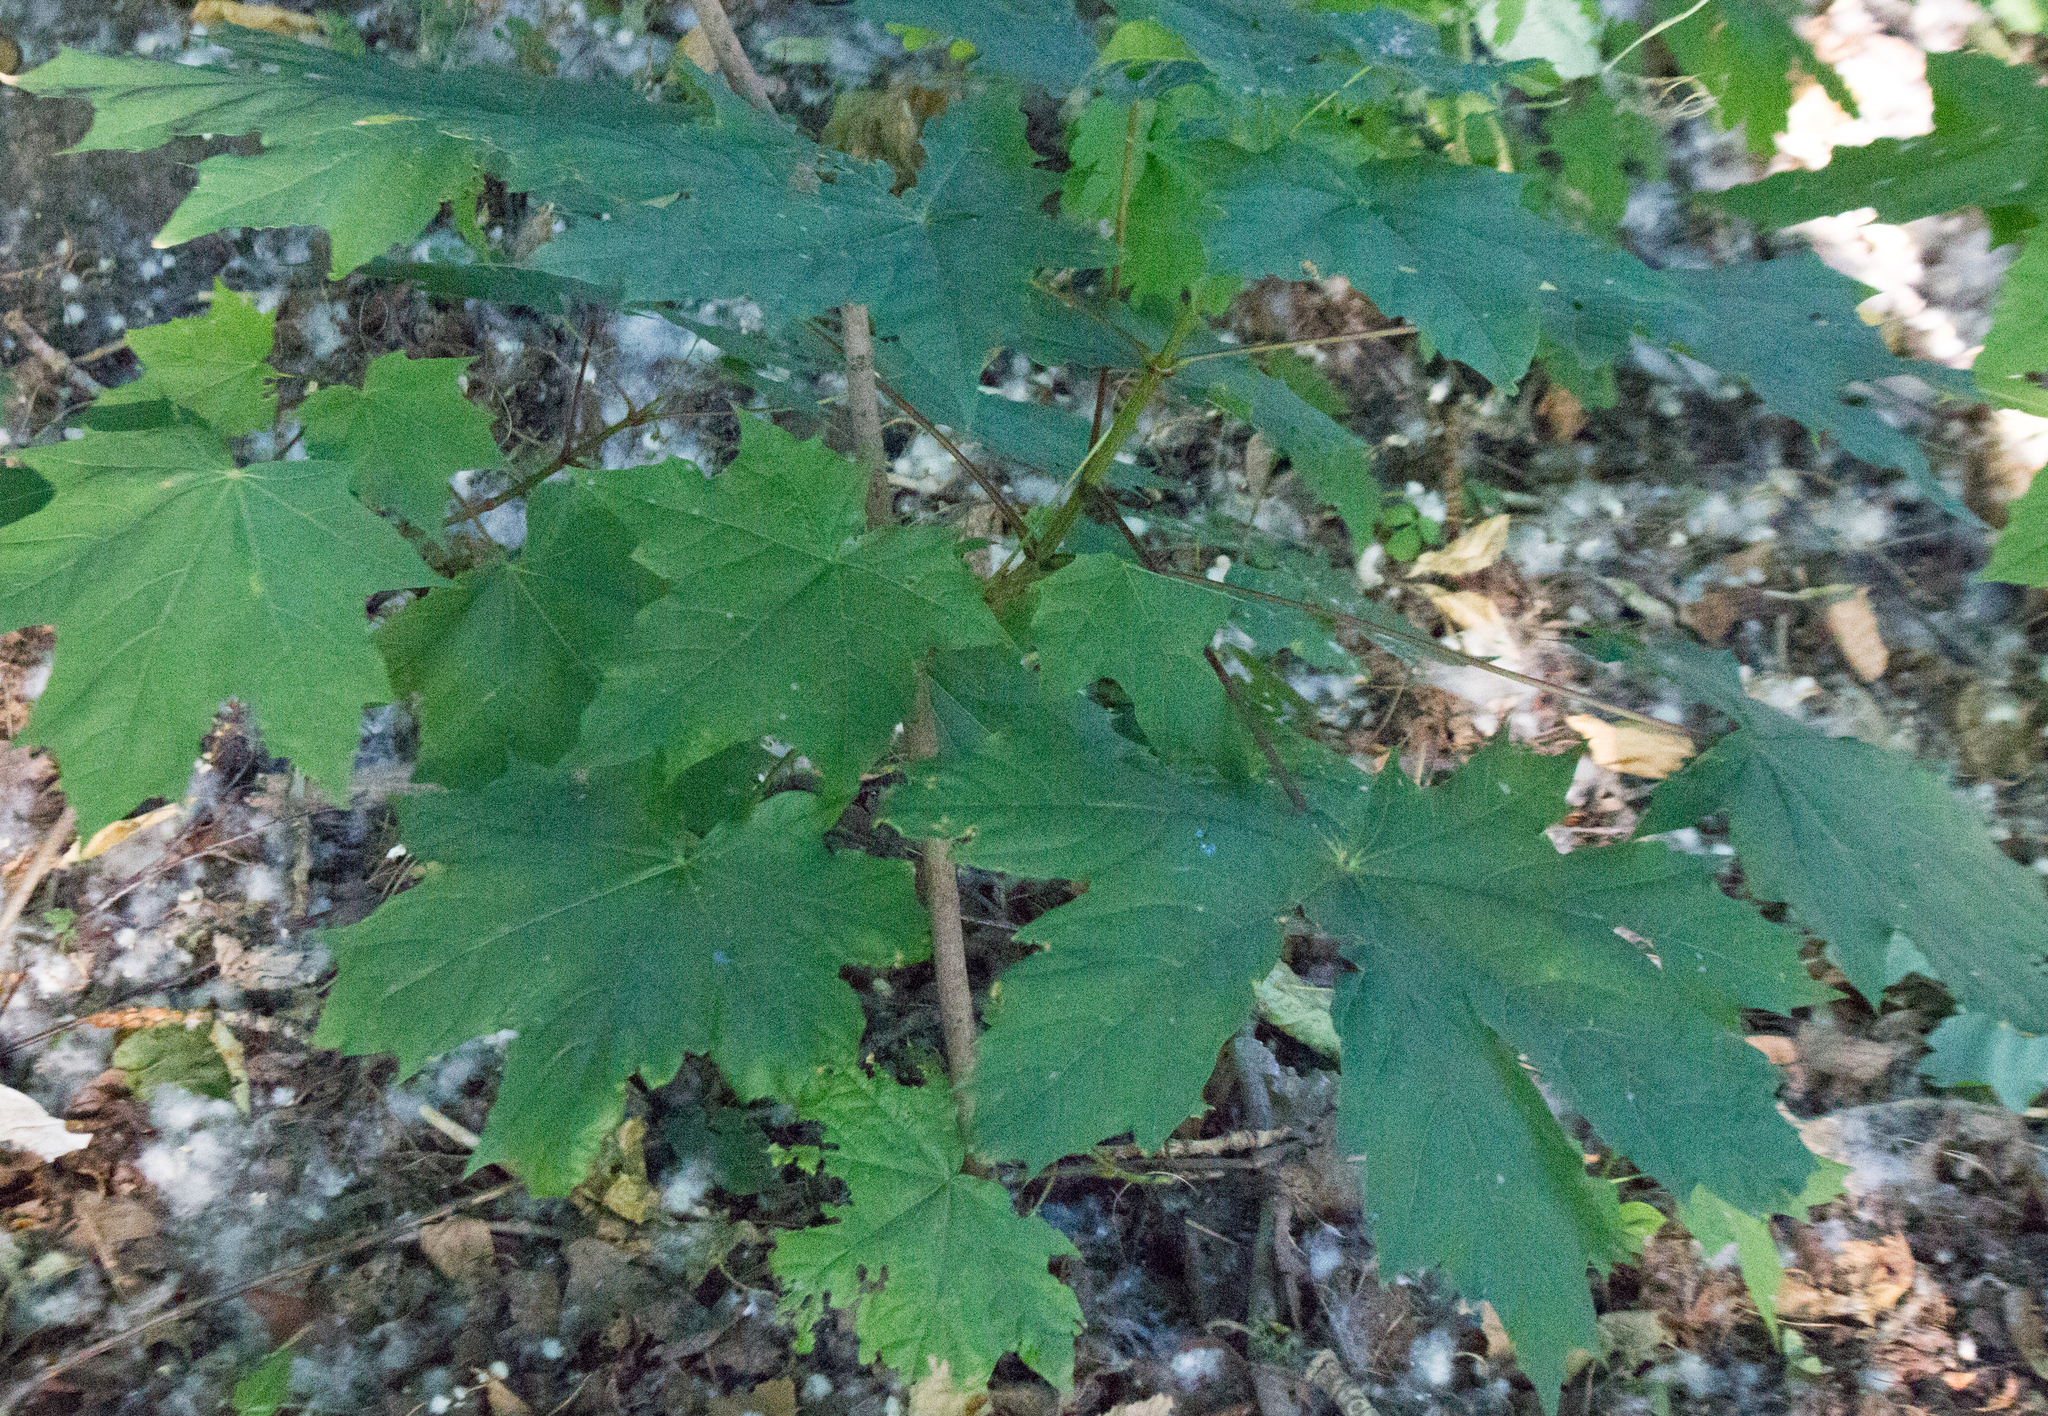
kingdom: Plantae
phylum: Tracheophyta
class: Magnoliopsida
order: Sapindales
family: Sapindaceae
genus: Acer
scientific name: Acer platanoides
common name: Norway maple
